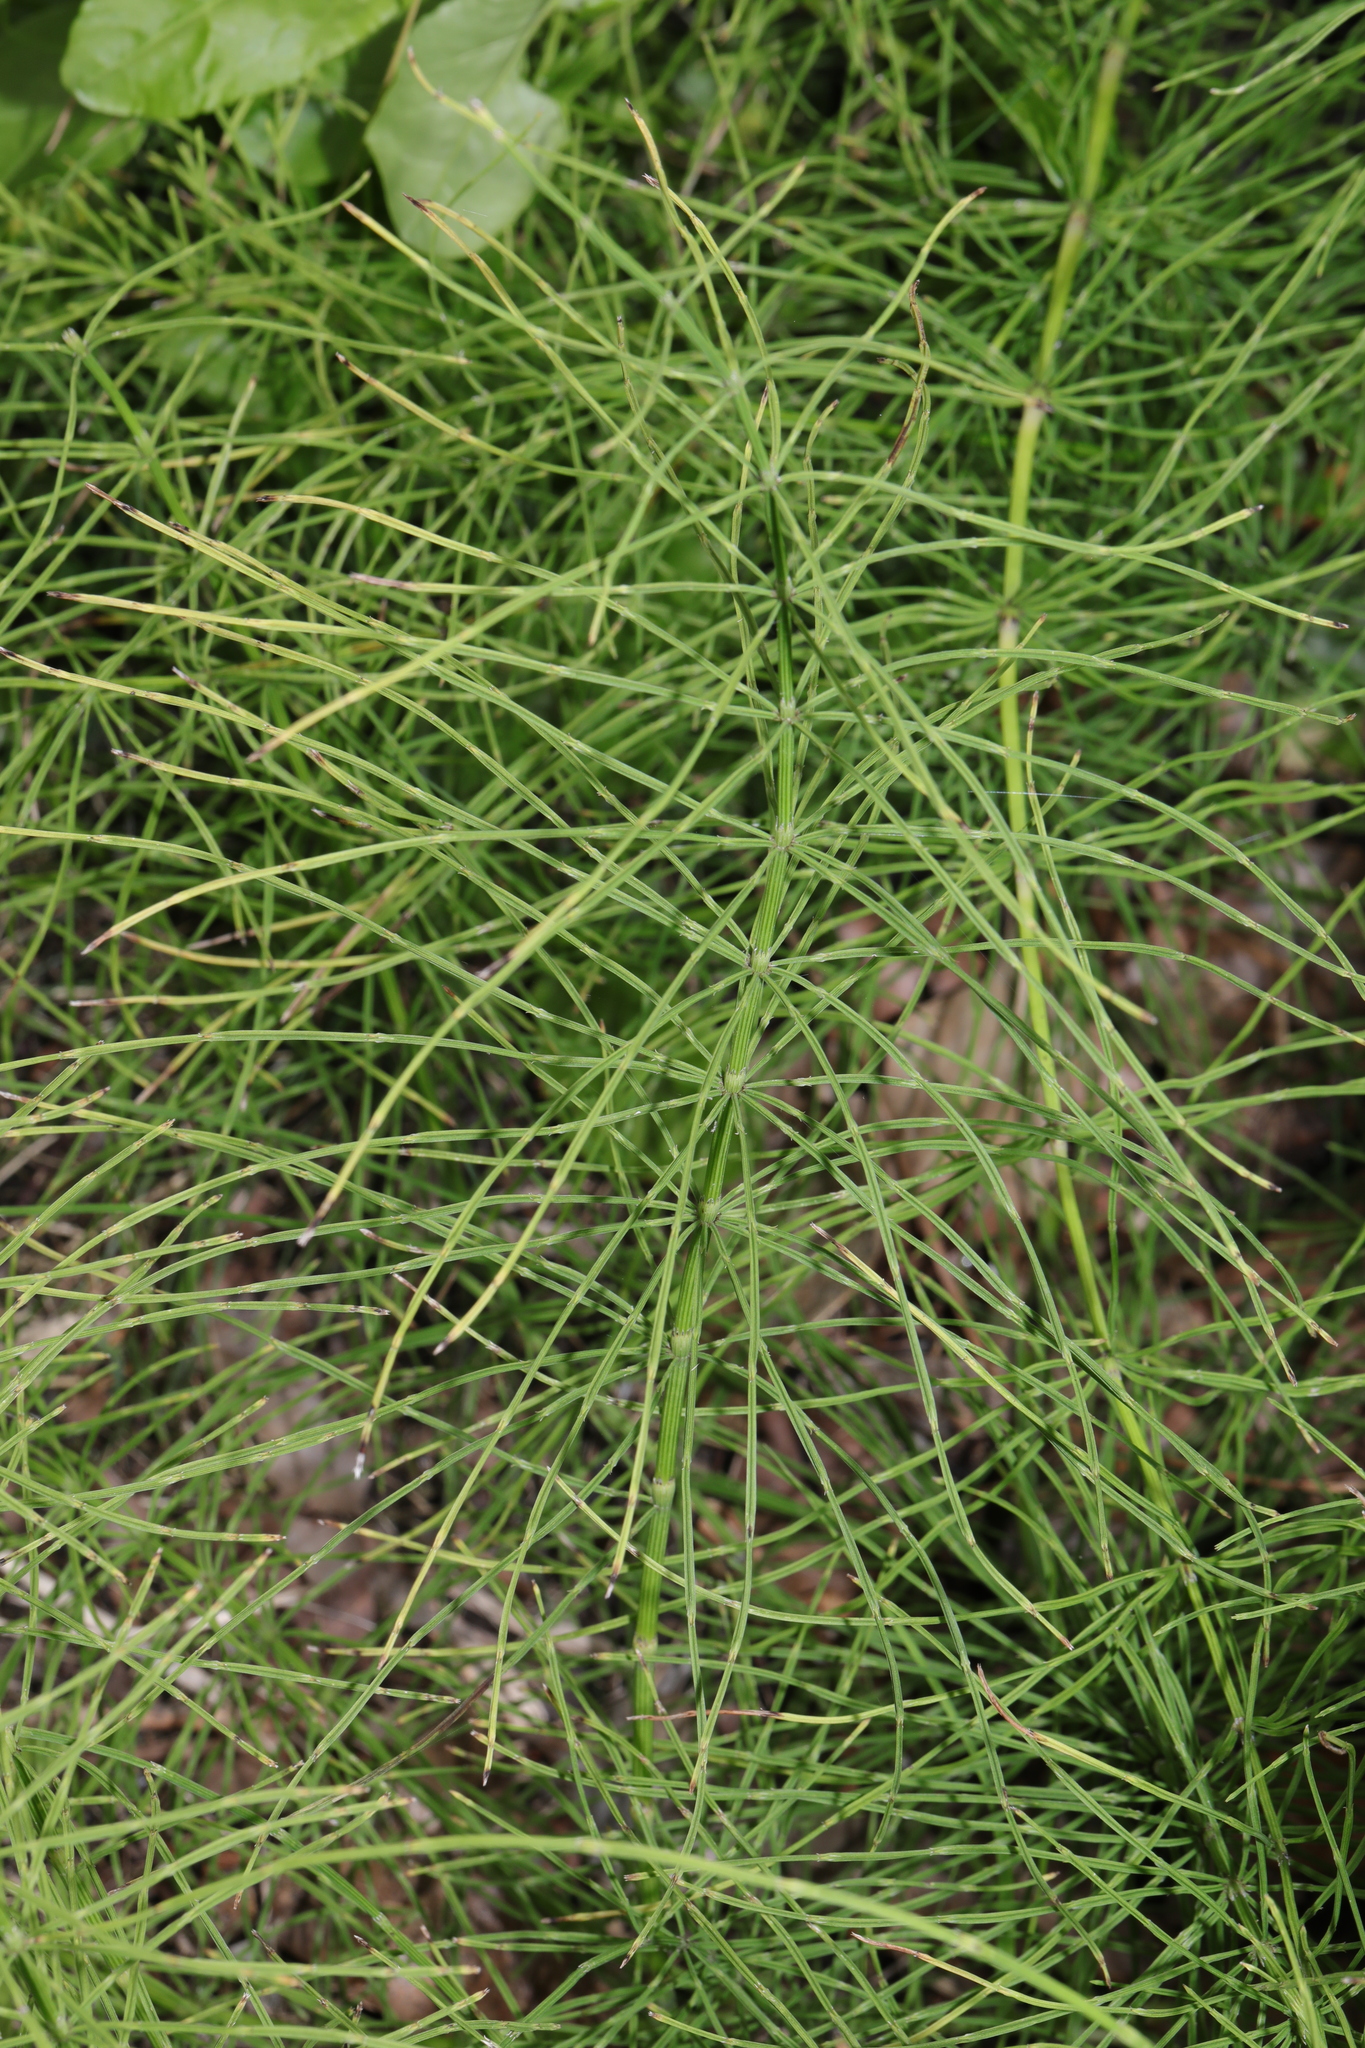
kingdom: Plantae
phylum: Tracheophyta
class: Polypodiopsida
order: Equisetales
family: Equisetaceae
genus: Equisetum
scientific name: Equisetum arvense
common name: Field horsetail
